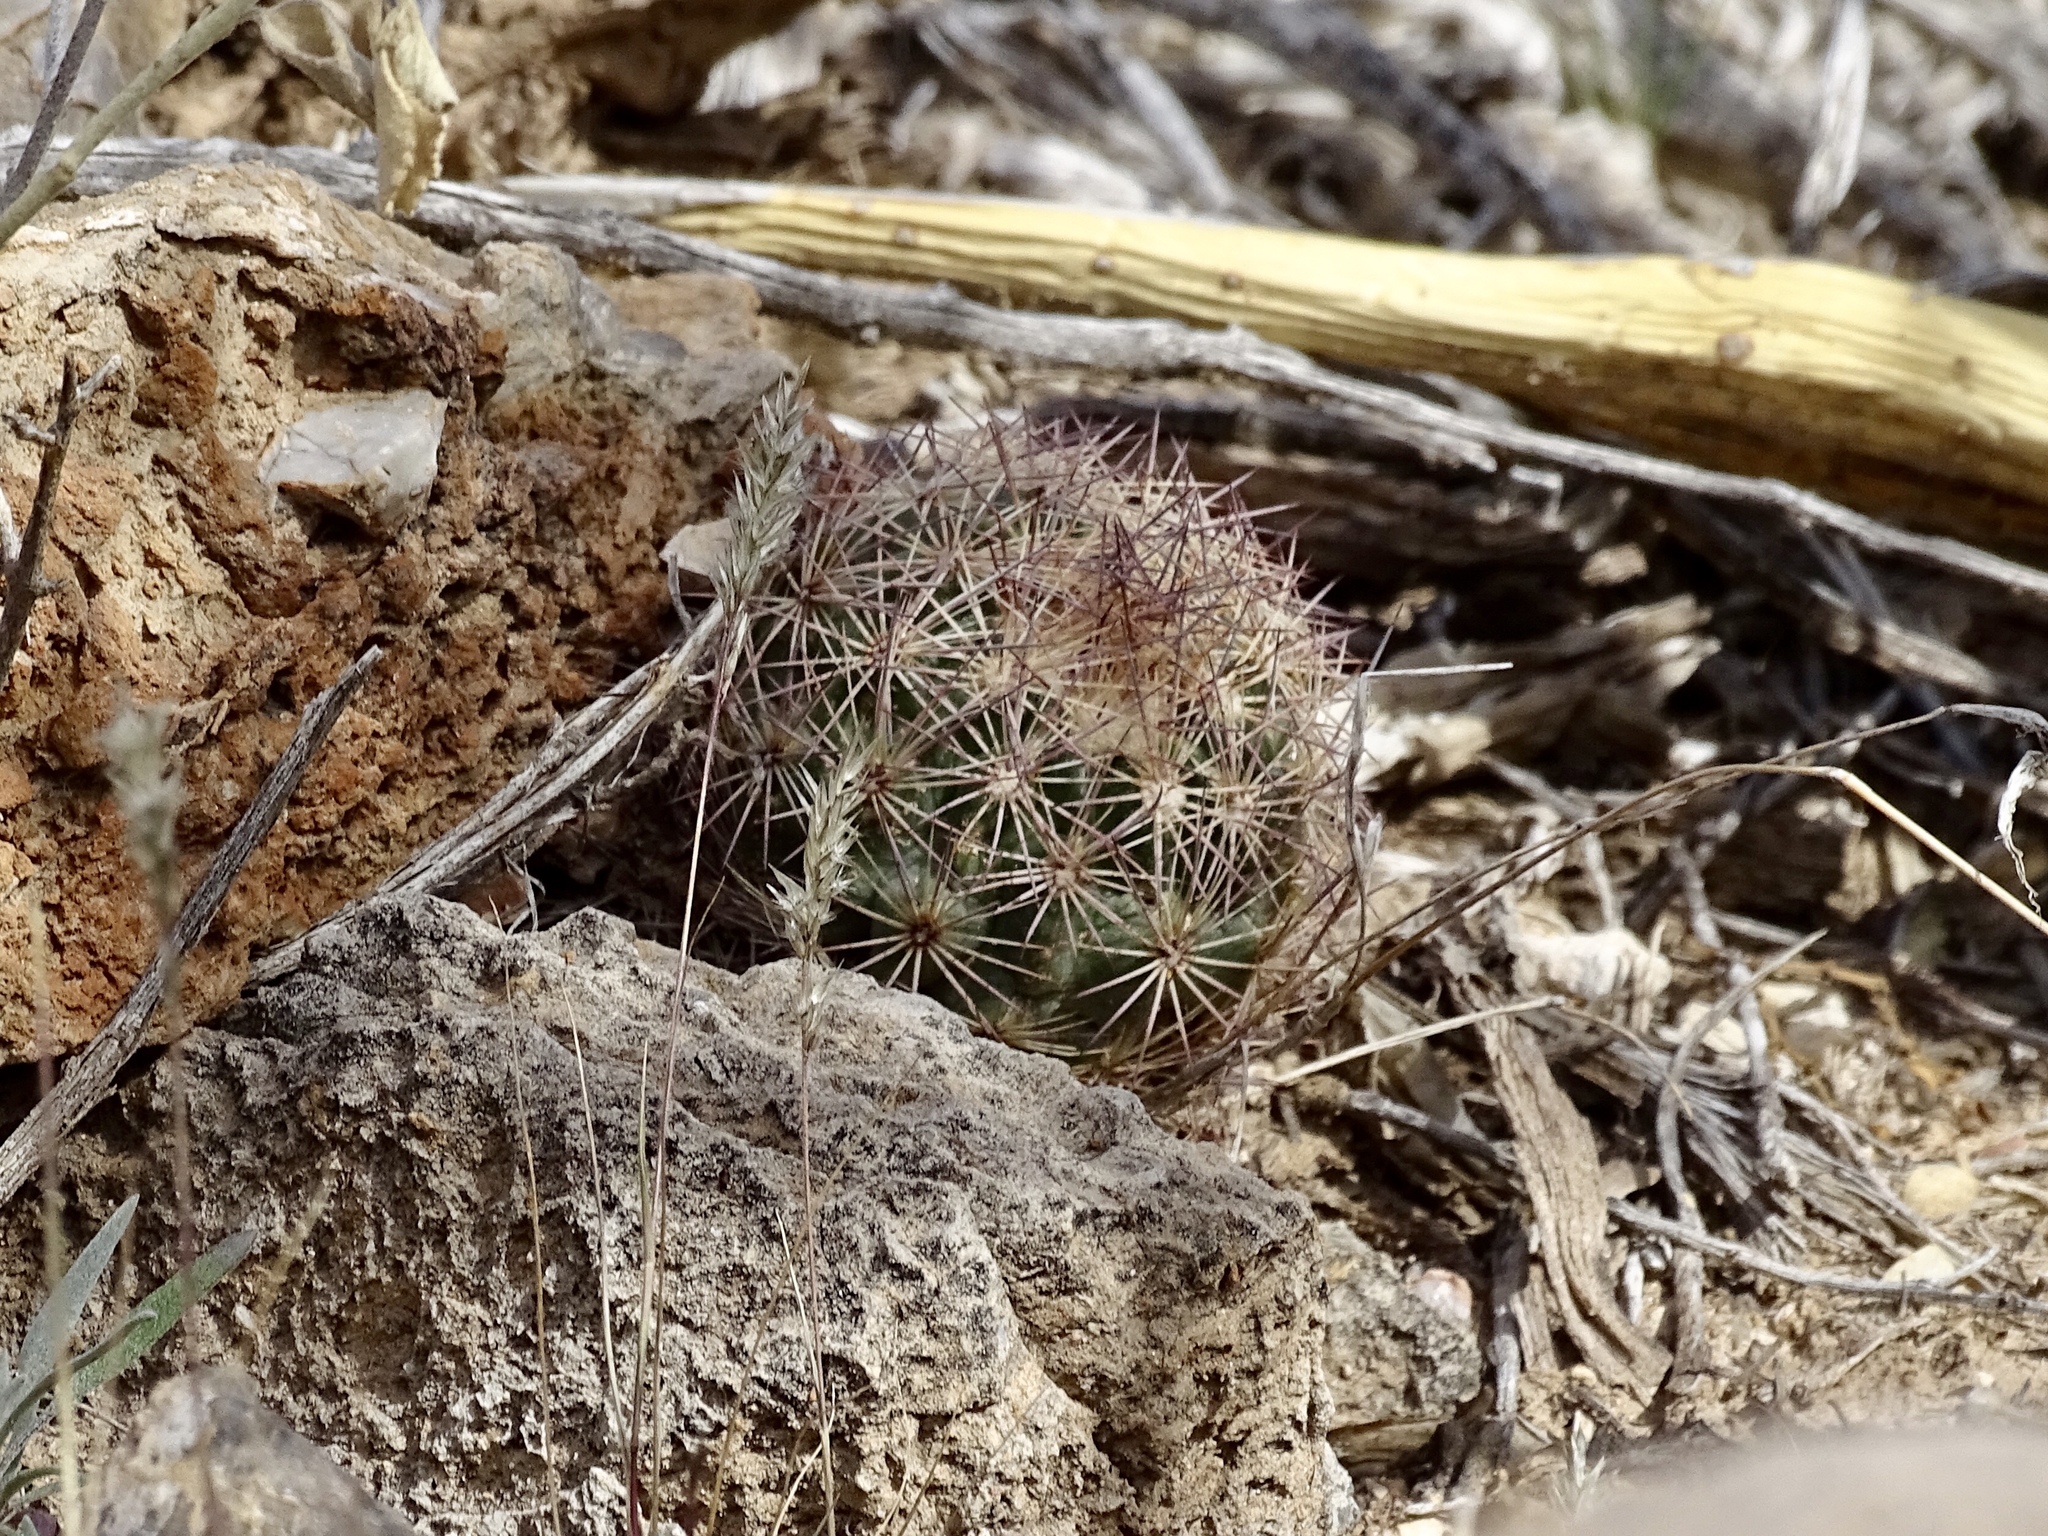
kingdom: Plantae
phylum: Tracheophyta
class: Magnoliopsida
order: Caryophyllales
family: Cactaceae
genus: Sclerocactus
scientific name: Sclerocactus intertextus
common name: White fish-hook cactus
